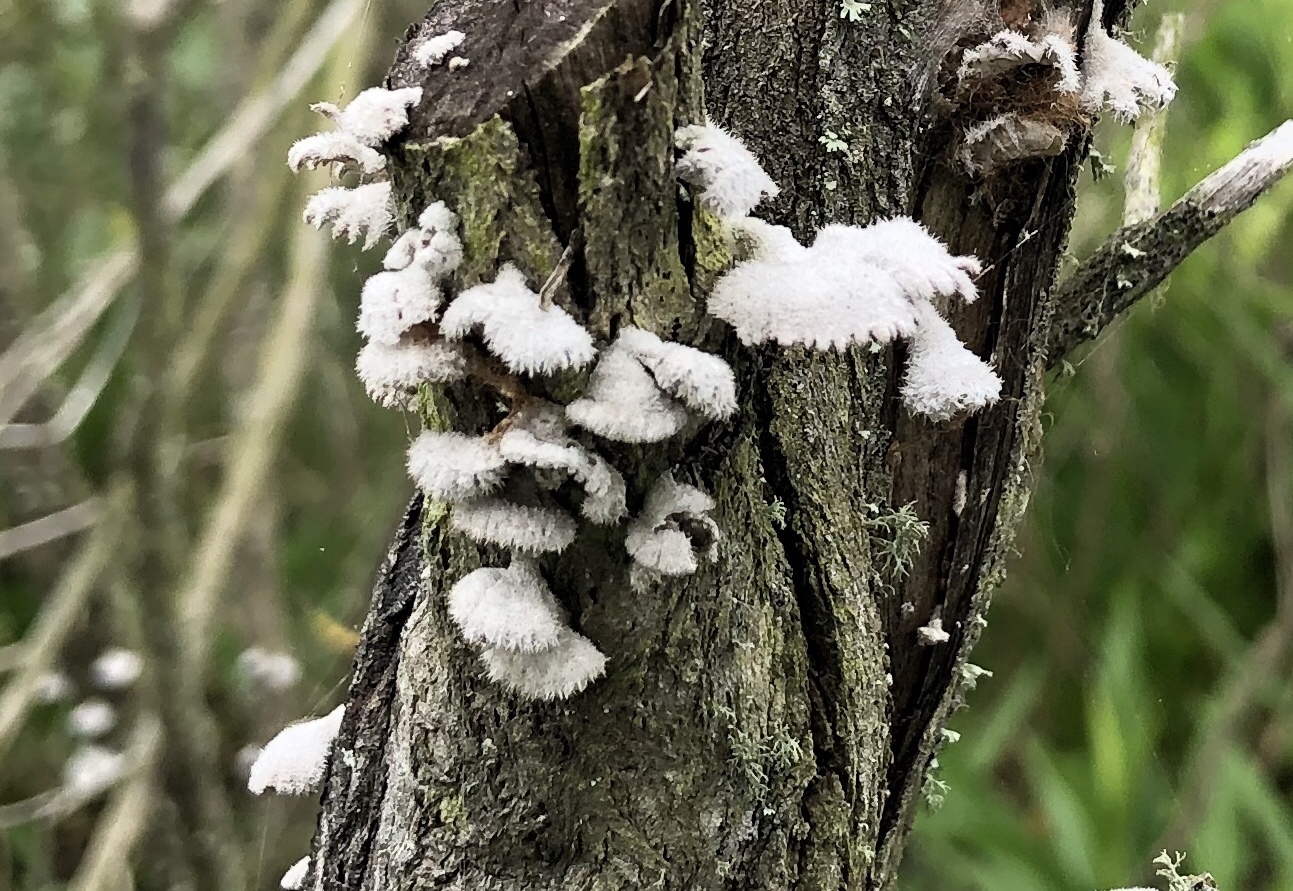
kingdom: Fungi
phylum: Basidiomycota
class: Agaricomycetes
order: Agaricales
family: Schizophyllaceae
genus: Schizophyllum
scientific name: Schizophyllum commune
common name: Common porecrust
